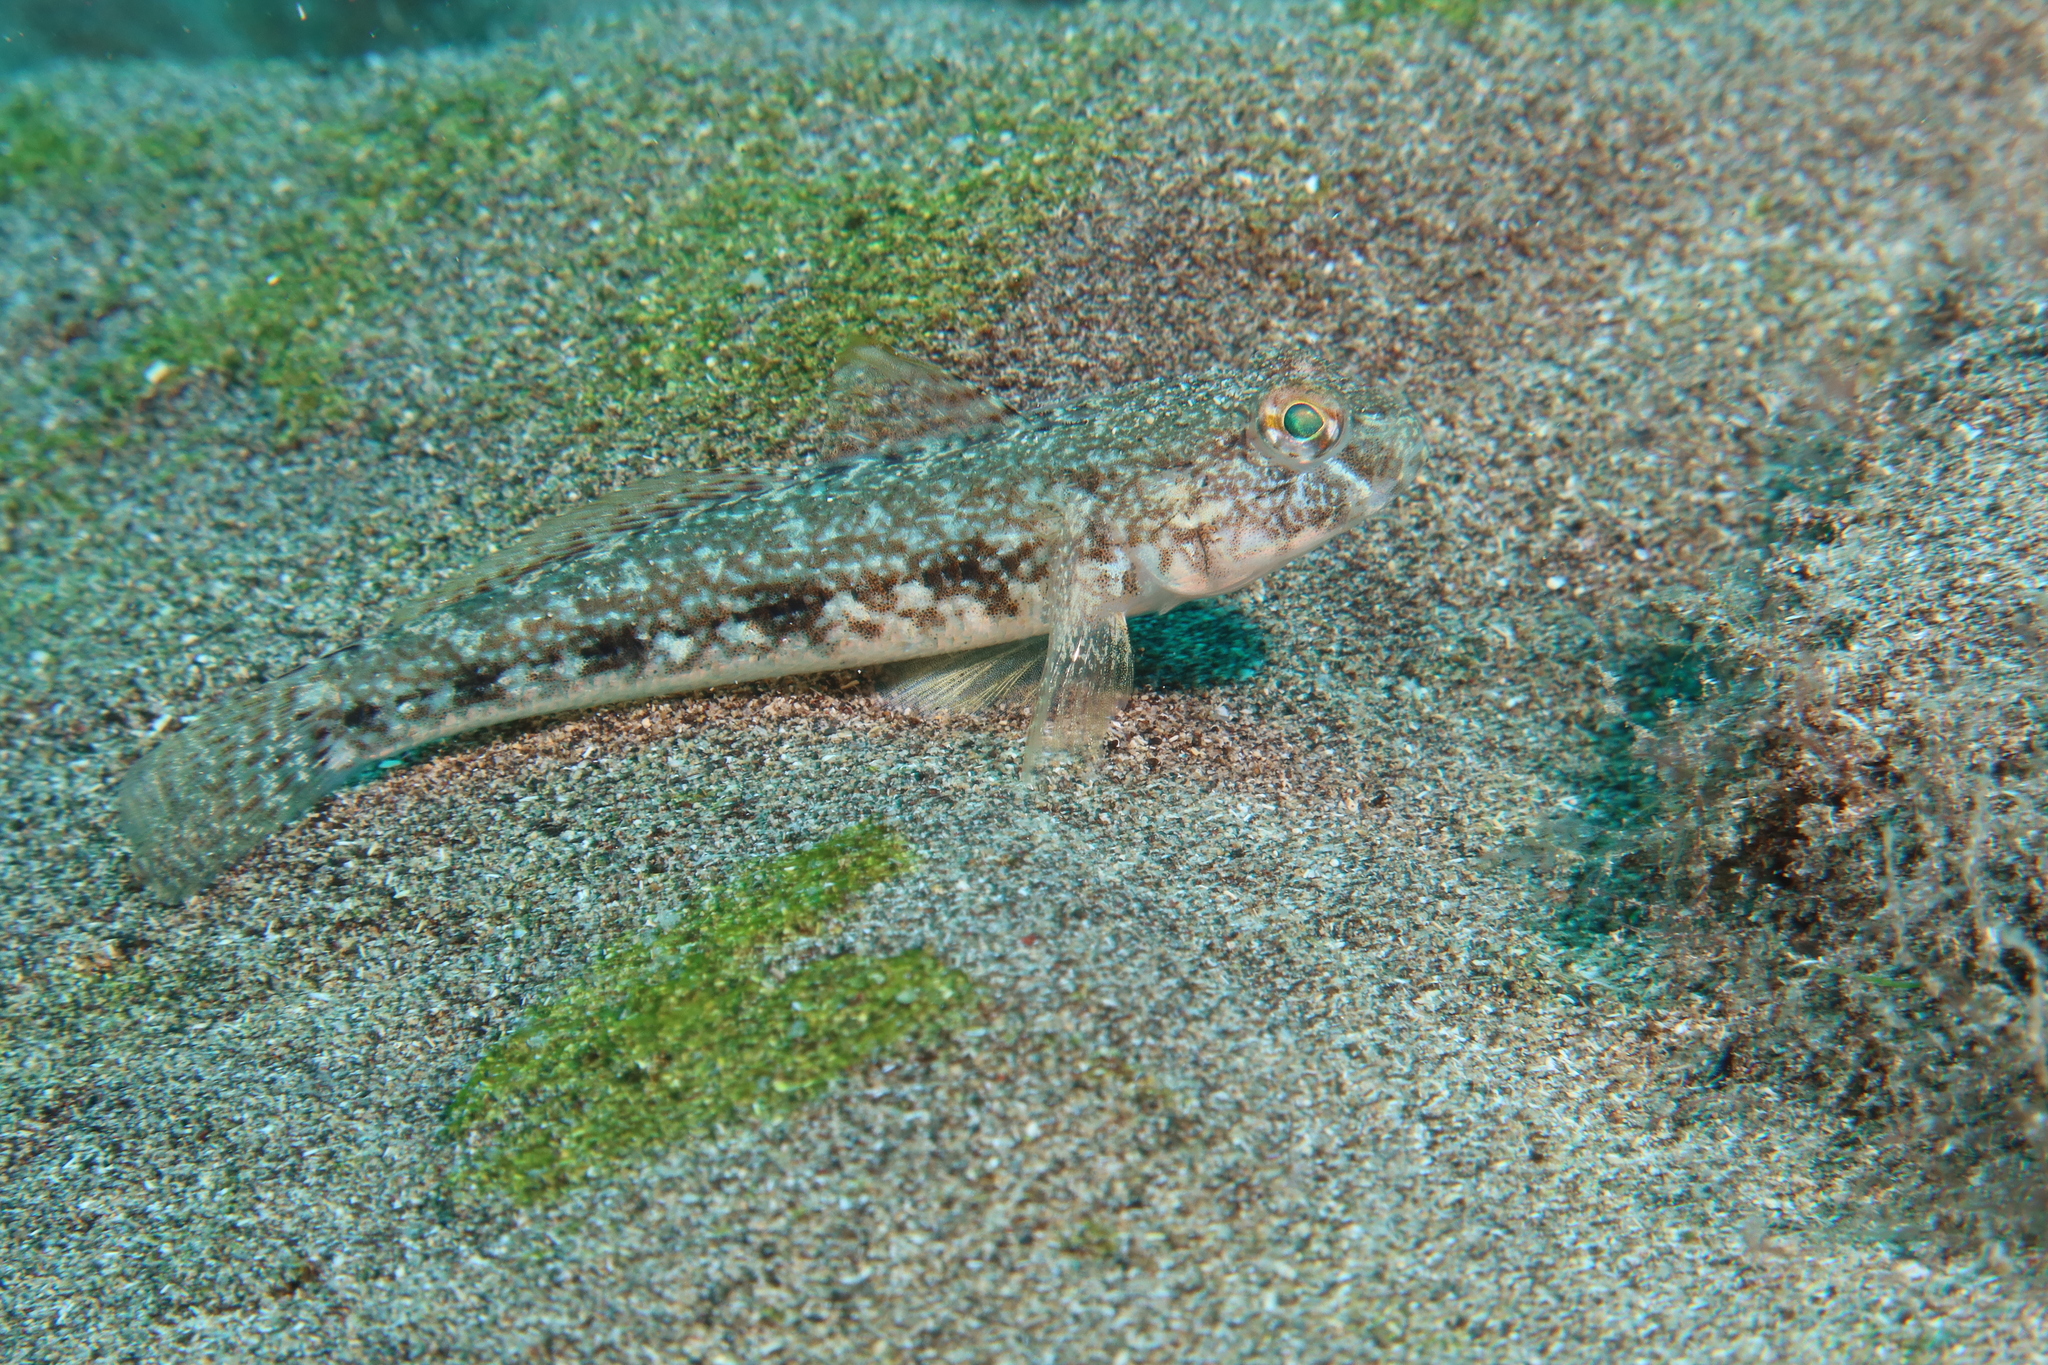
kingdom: Animalia
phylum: Chordata
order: Perciformes
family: Gobiidae
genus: Gobius
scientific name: Gobius niger
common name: Black goby
